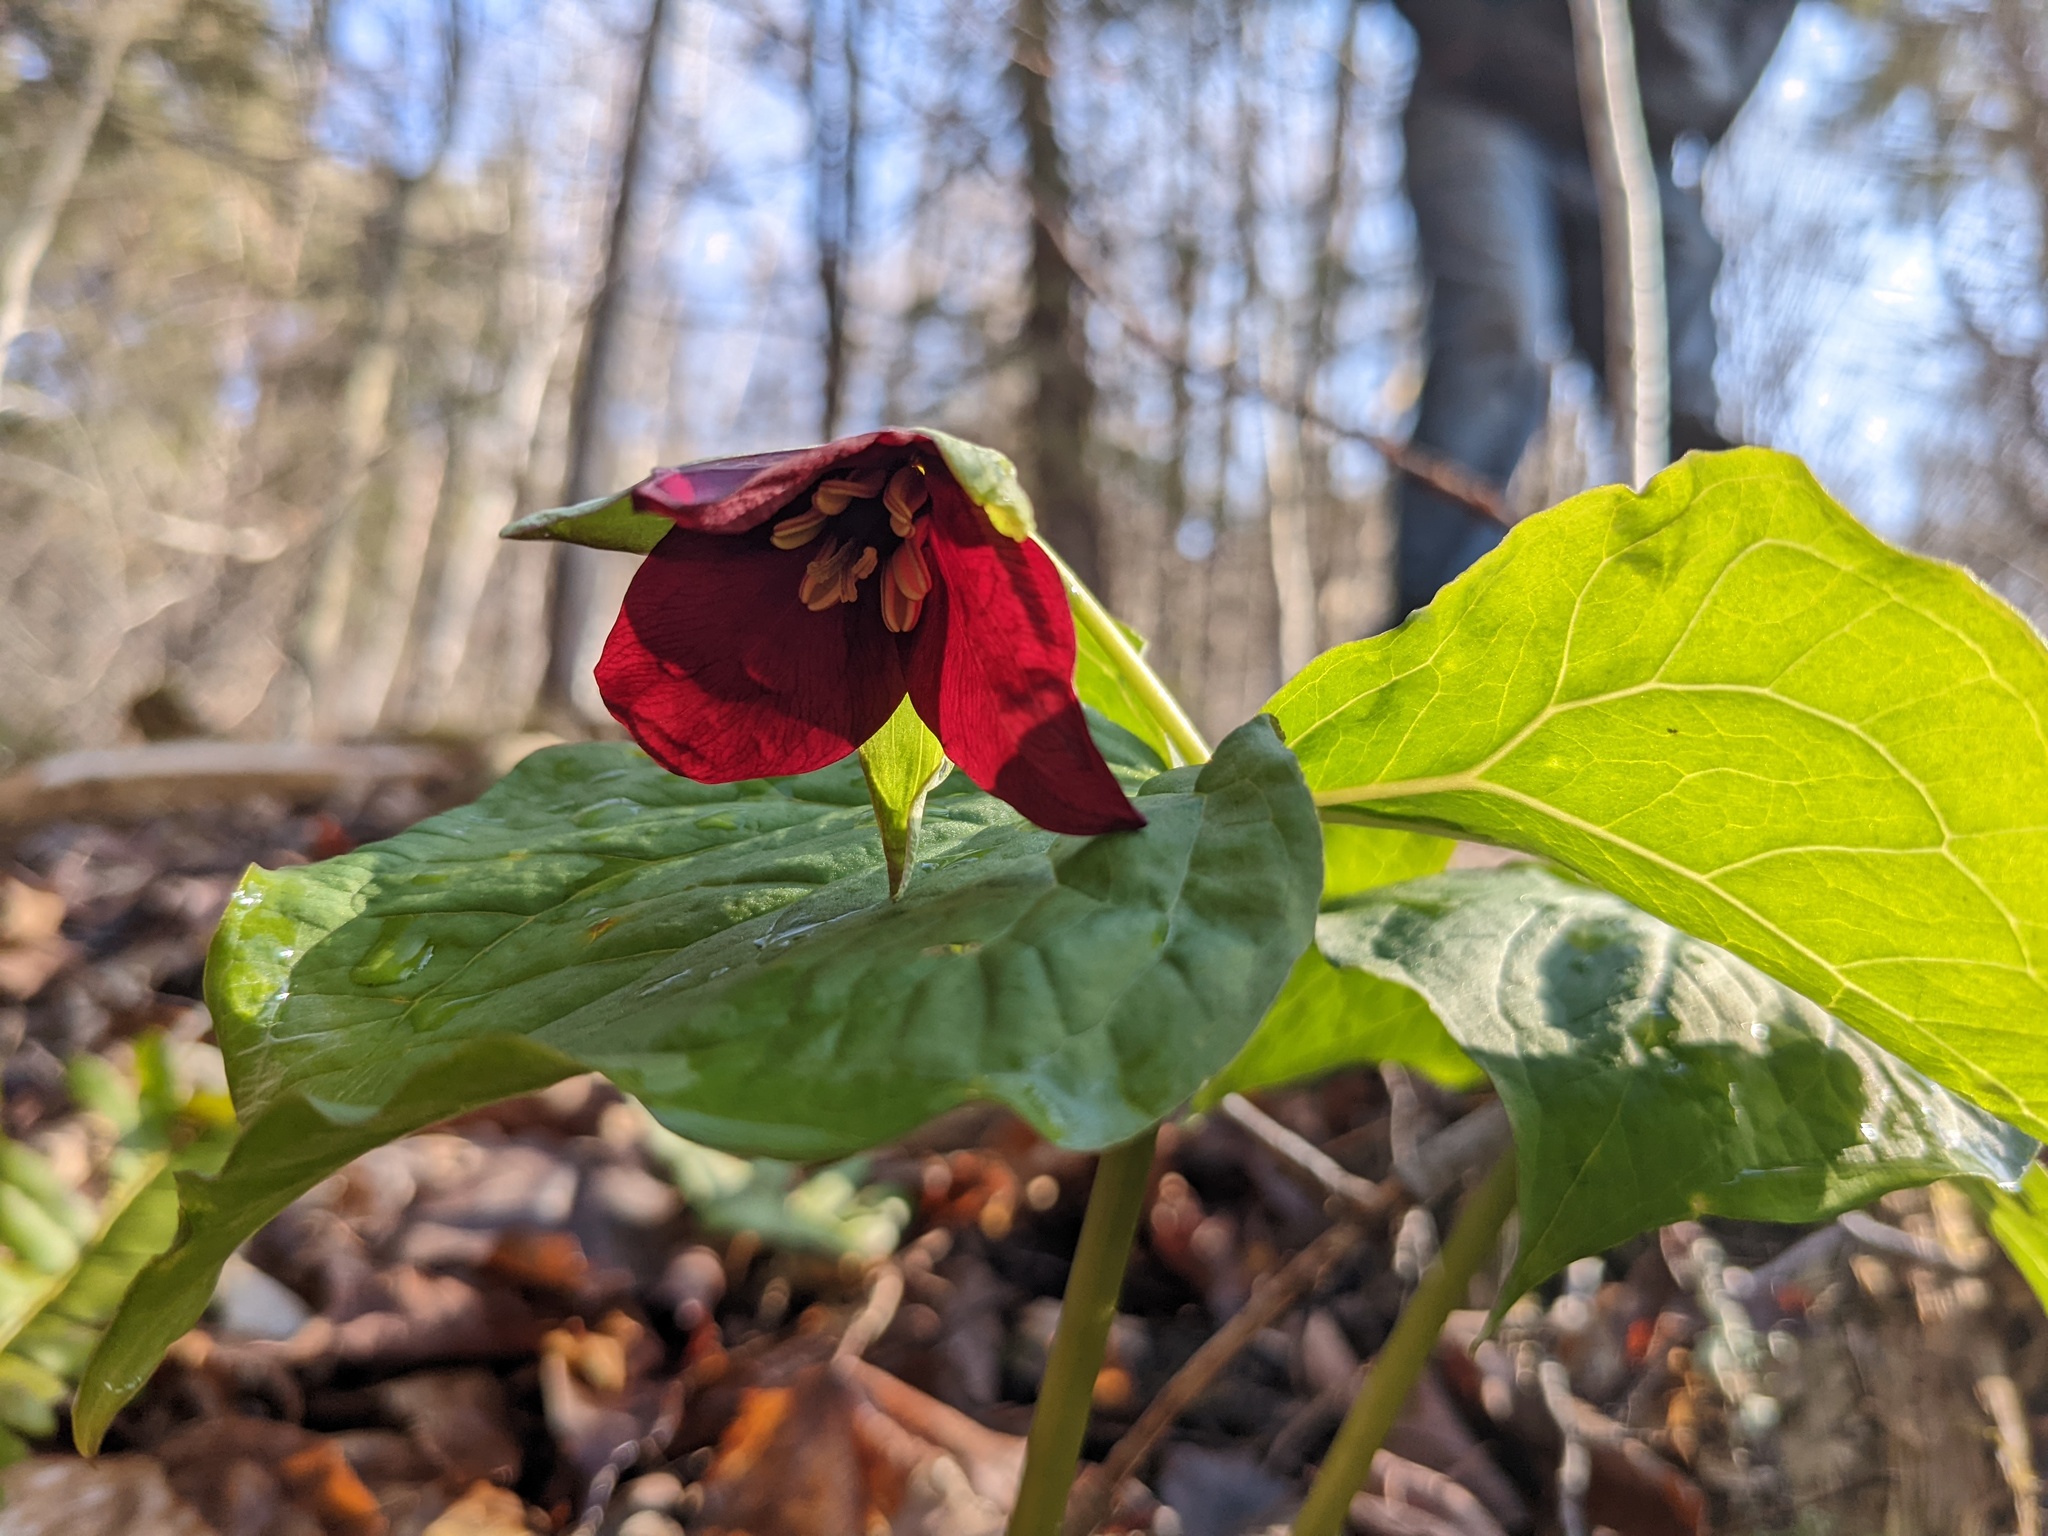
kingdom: Plantae
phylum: Tracheophyta
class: Liliopsida
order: Liliales
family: Melanthiaceae
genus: Trillium
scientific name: Trillium erectum
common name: Purple trillium
